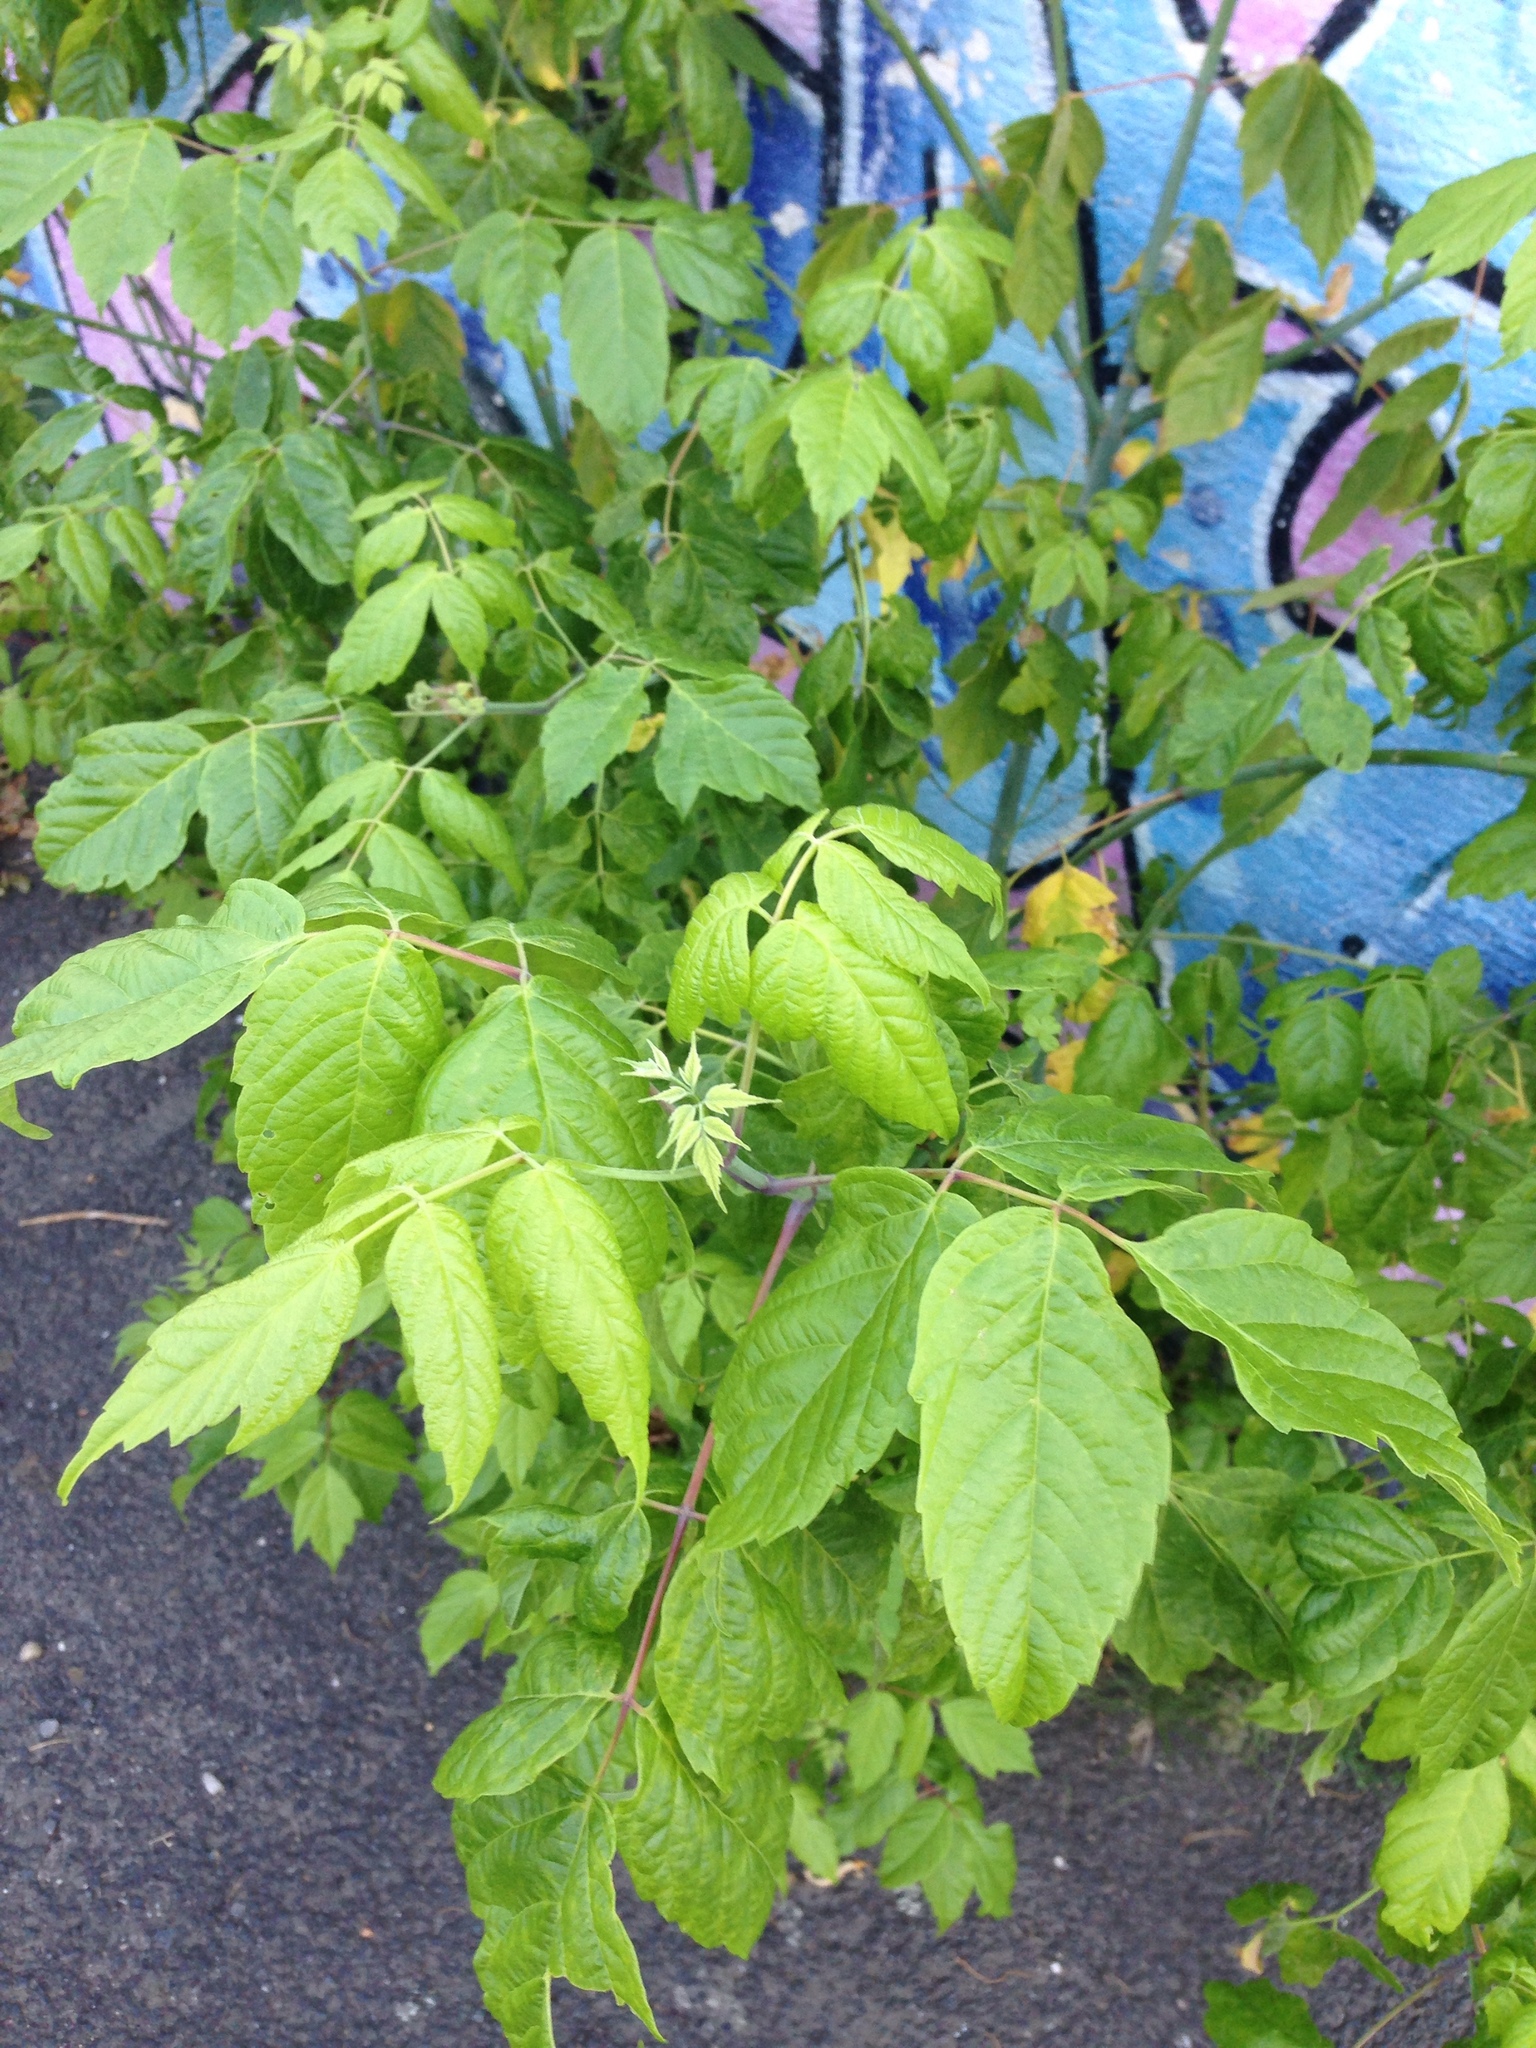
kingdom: Plantae
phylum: Tracheophyta
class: Magnoliopsida
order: Sapindales
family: Sapindaceae
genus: Acer
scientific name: Acer negundo
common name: Ashleaf maple
